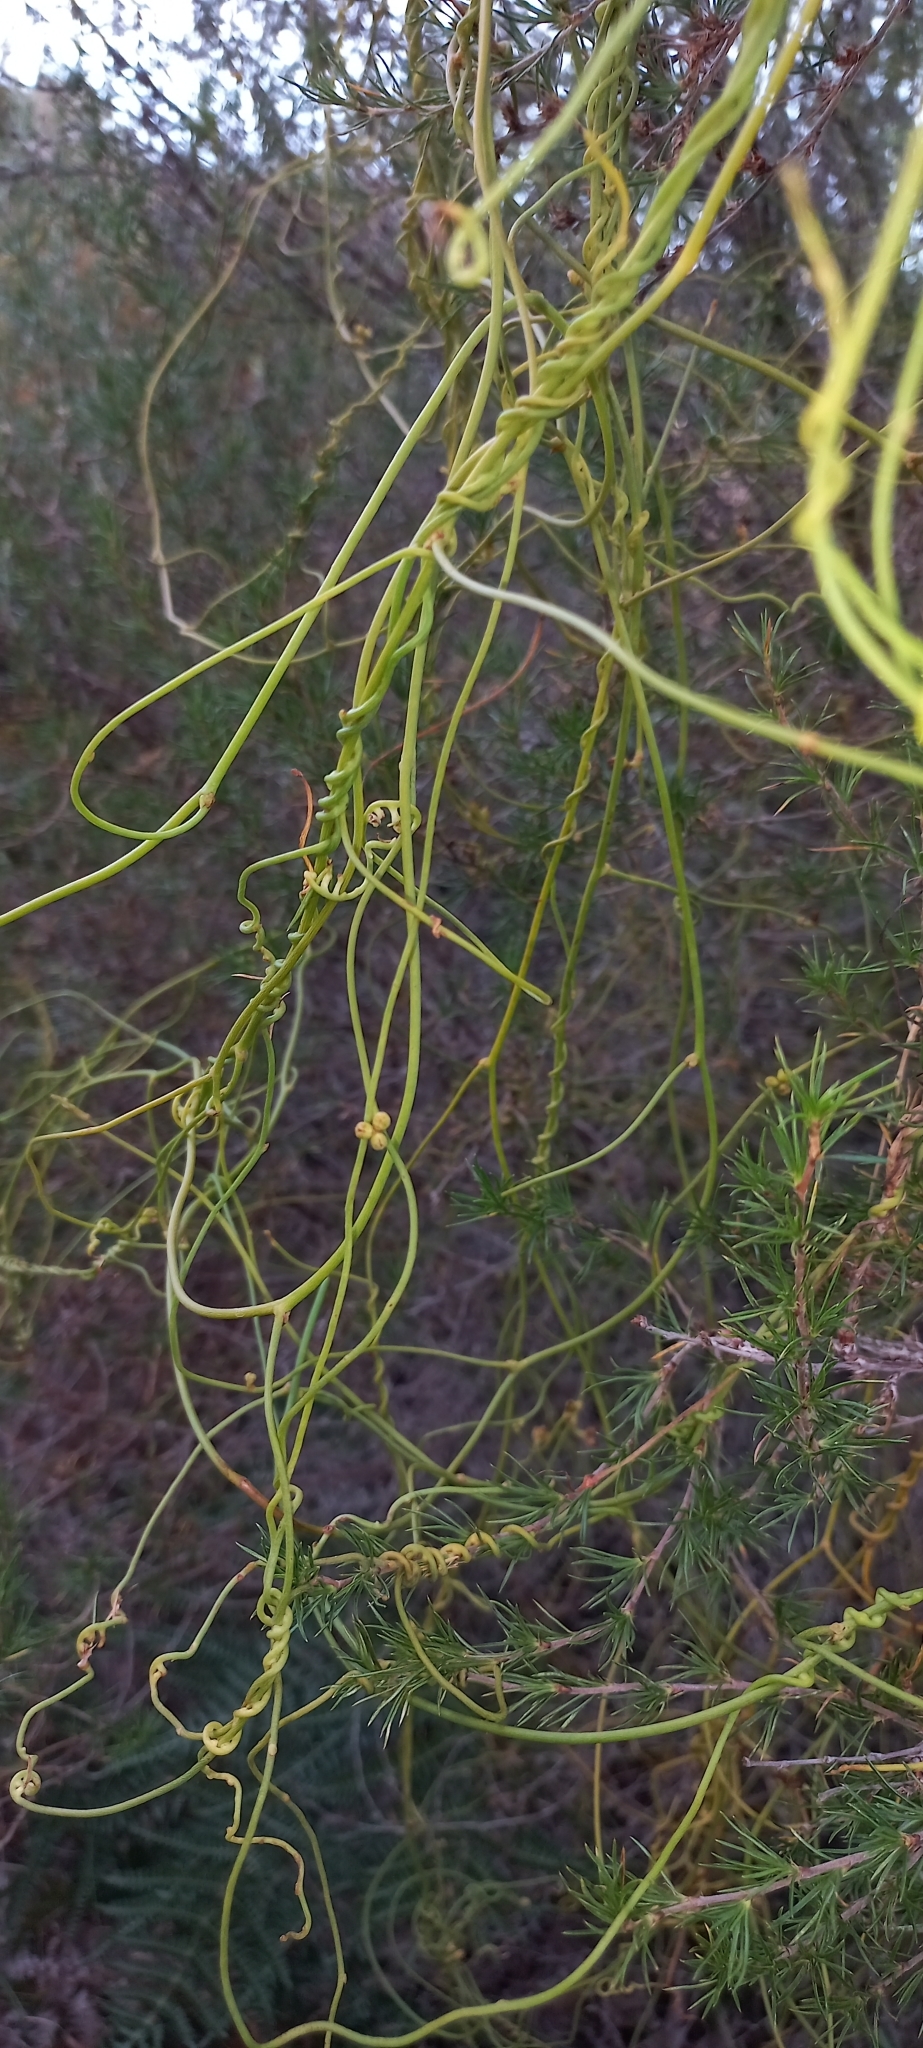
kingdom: Plantae
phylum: Tracheophyta
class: Magnoliopsida
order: Laurales
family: Lauraceae
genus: Cassytha
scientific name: Cassytha ciliolata
